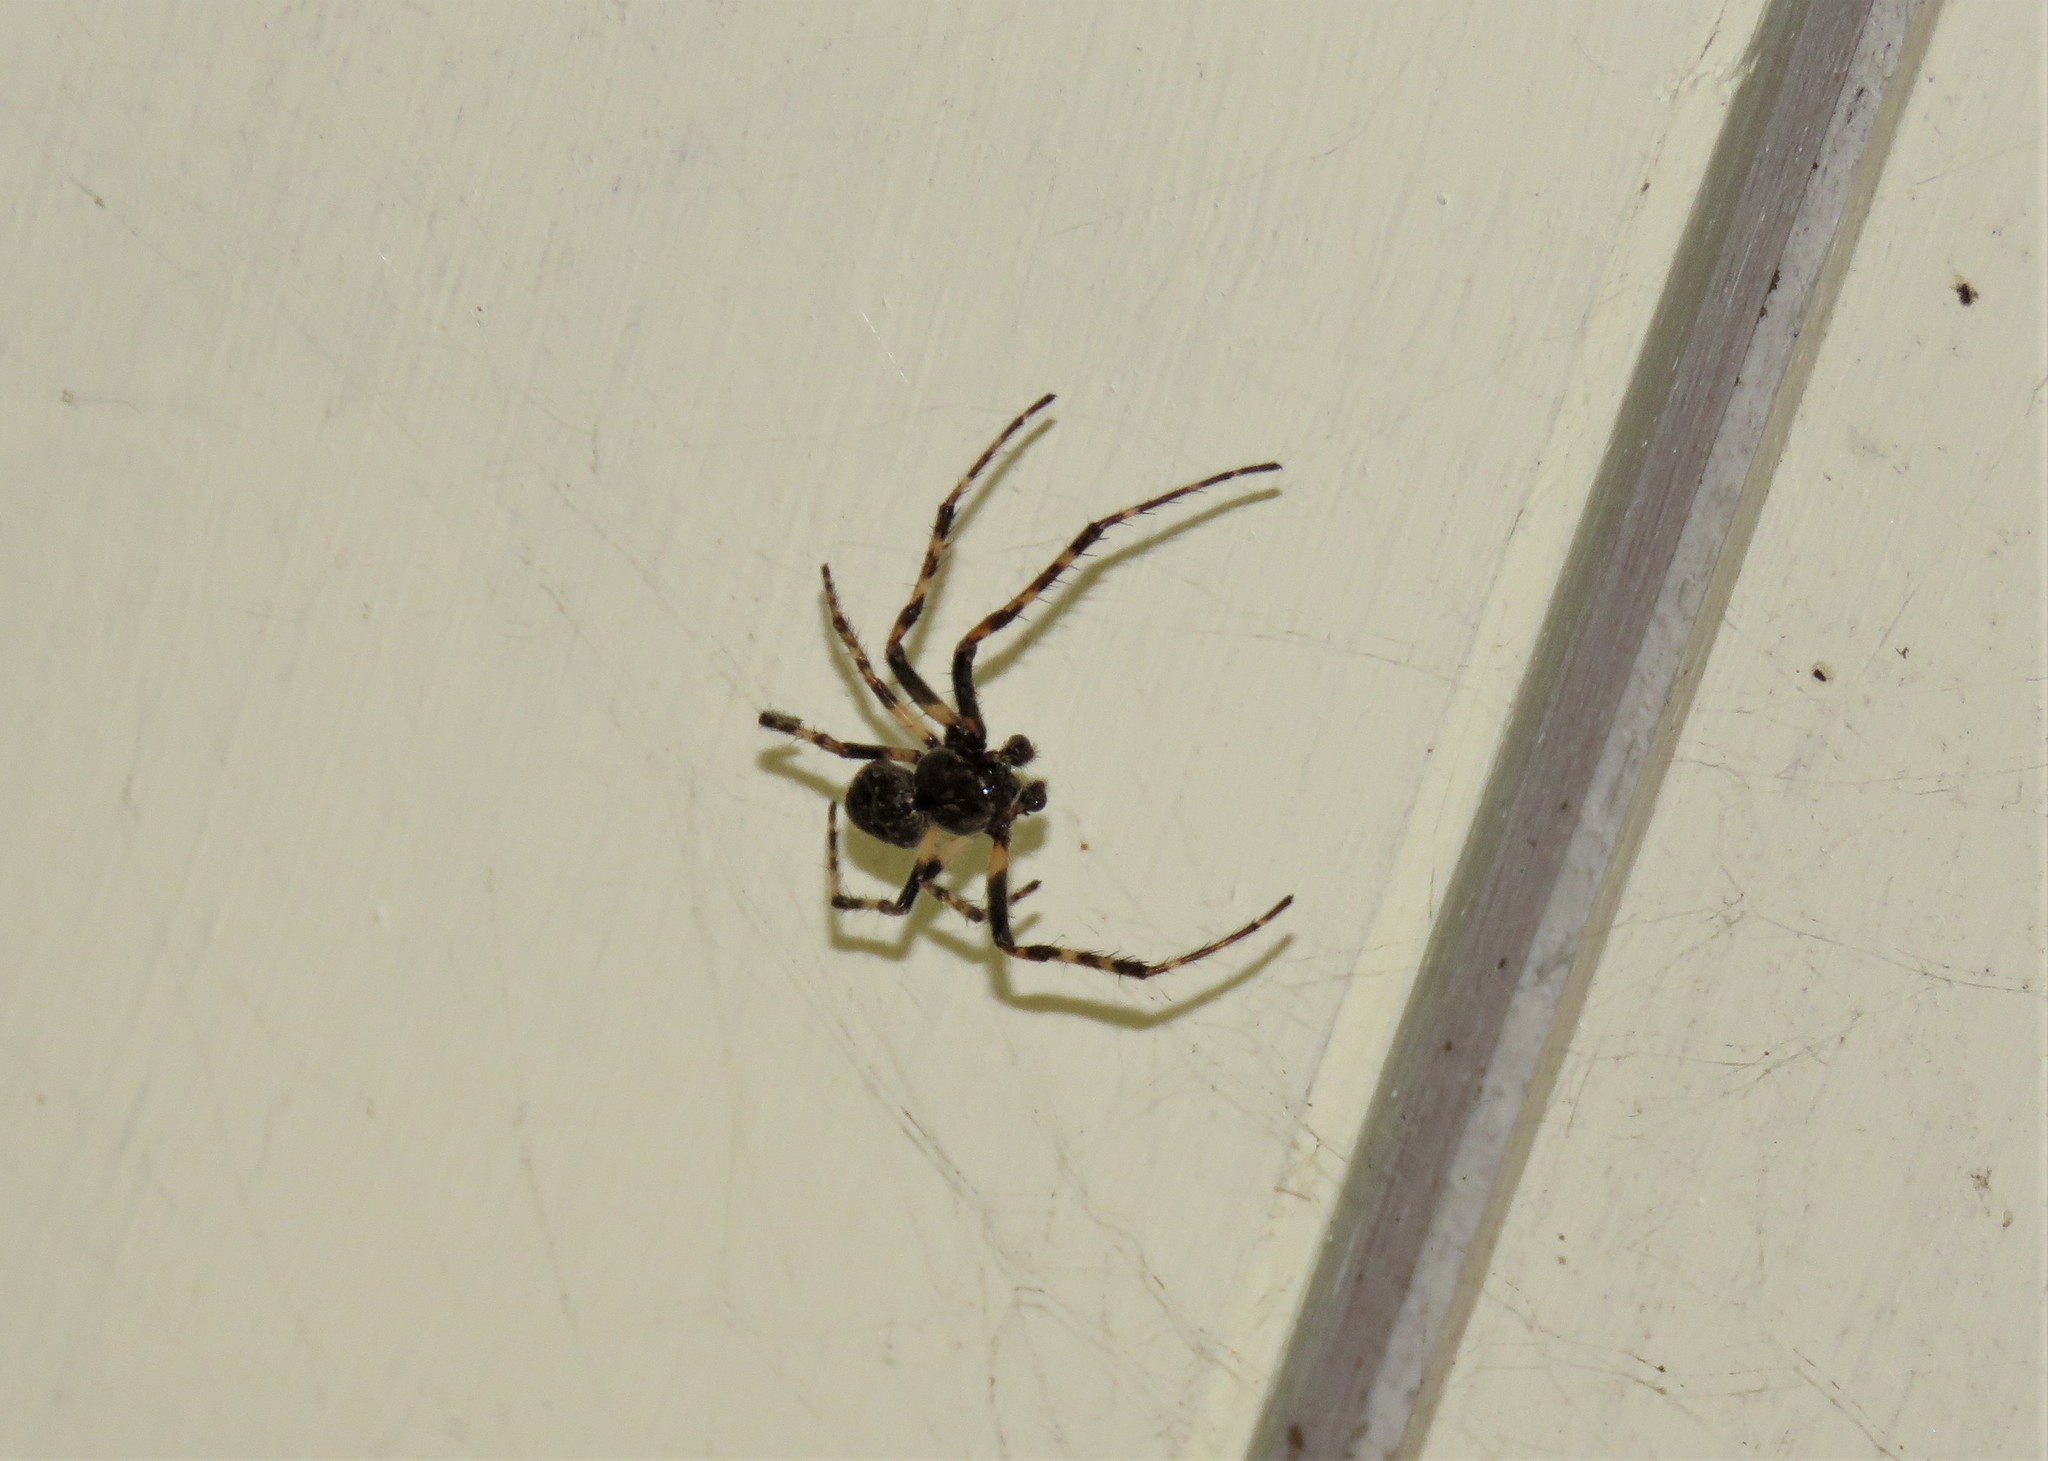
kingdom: Animalia
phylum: Arthropoda
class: Arachnida
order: Araneae
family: Araneidae
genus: Nuctenea
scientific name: Nuctenea umbratica
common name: Toad spider
